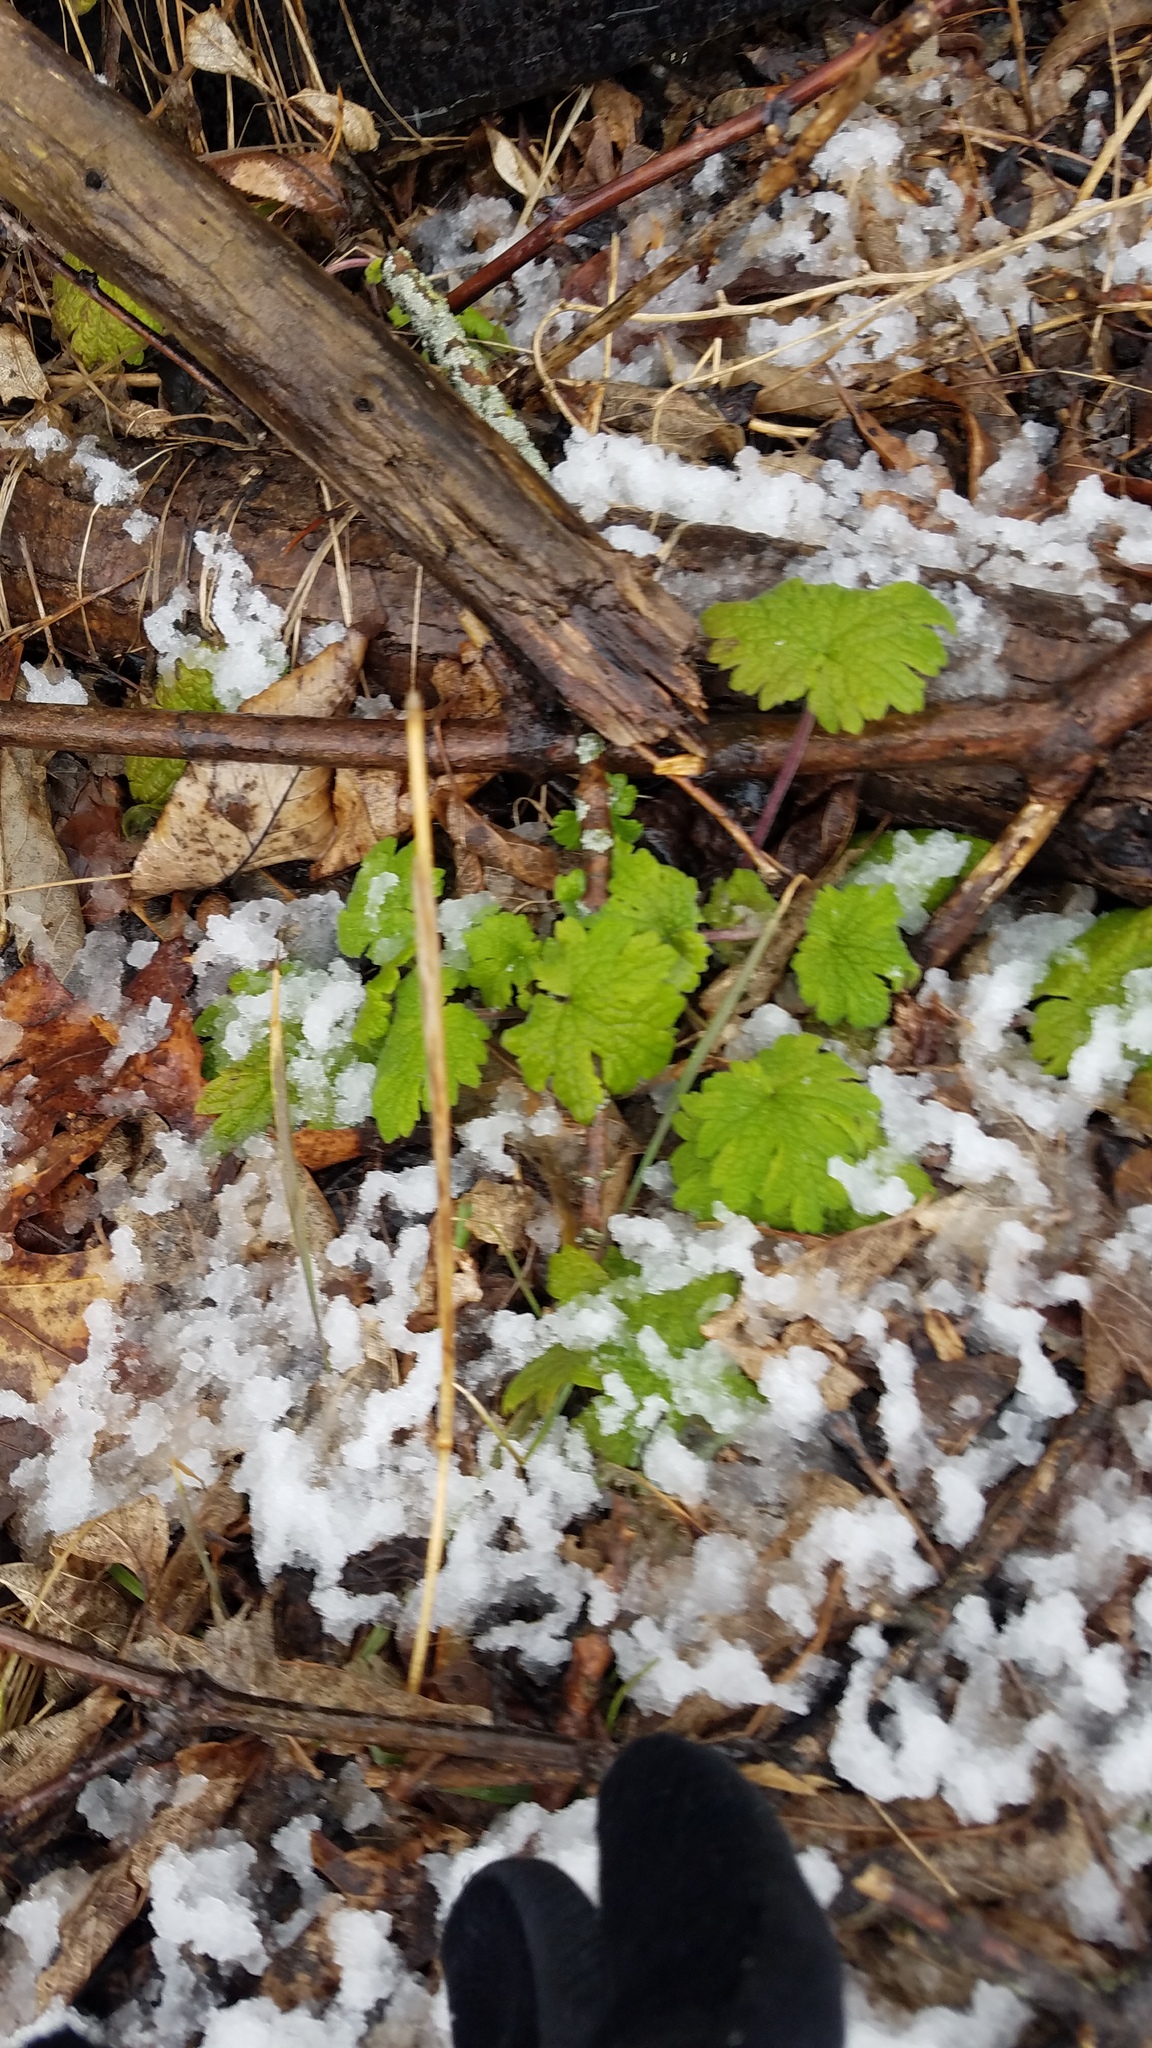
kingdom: Plantae
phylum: Tracheophyta
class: Magnoliopsida
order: Lamiales
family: Lamiaceae
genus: Leonurus
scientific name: Leonurus cardiaca
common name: Motherwort
